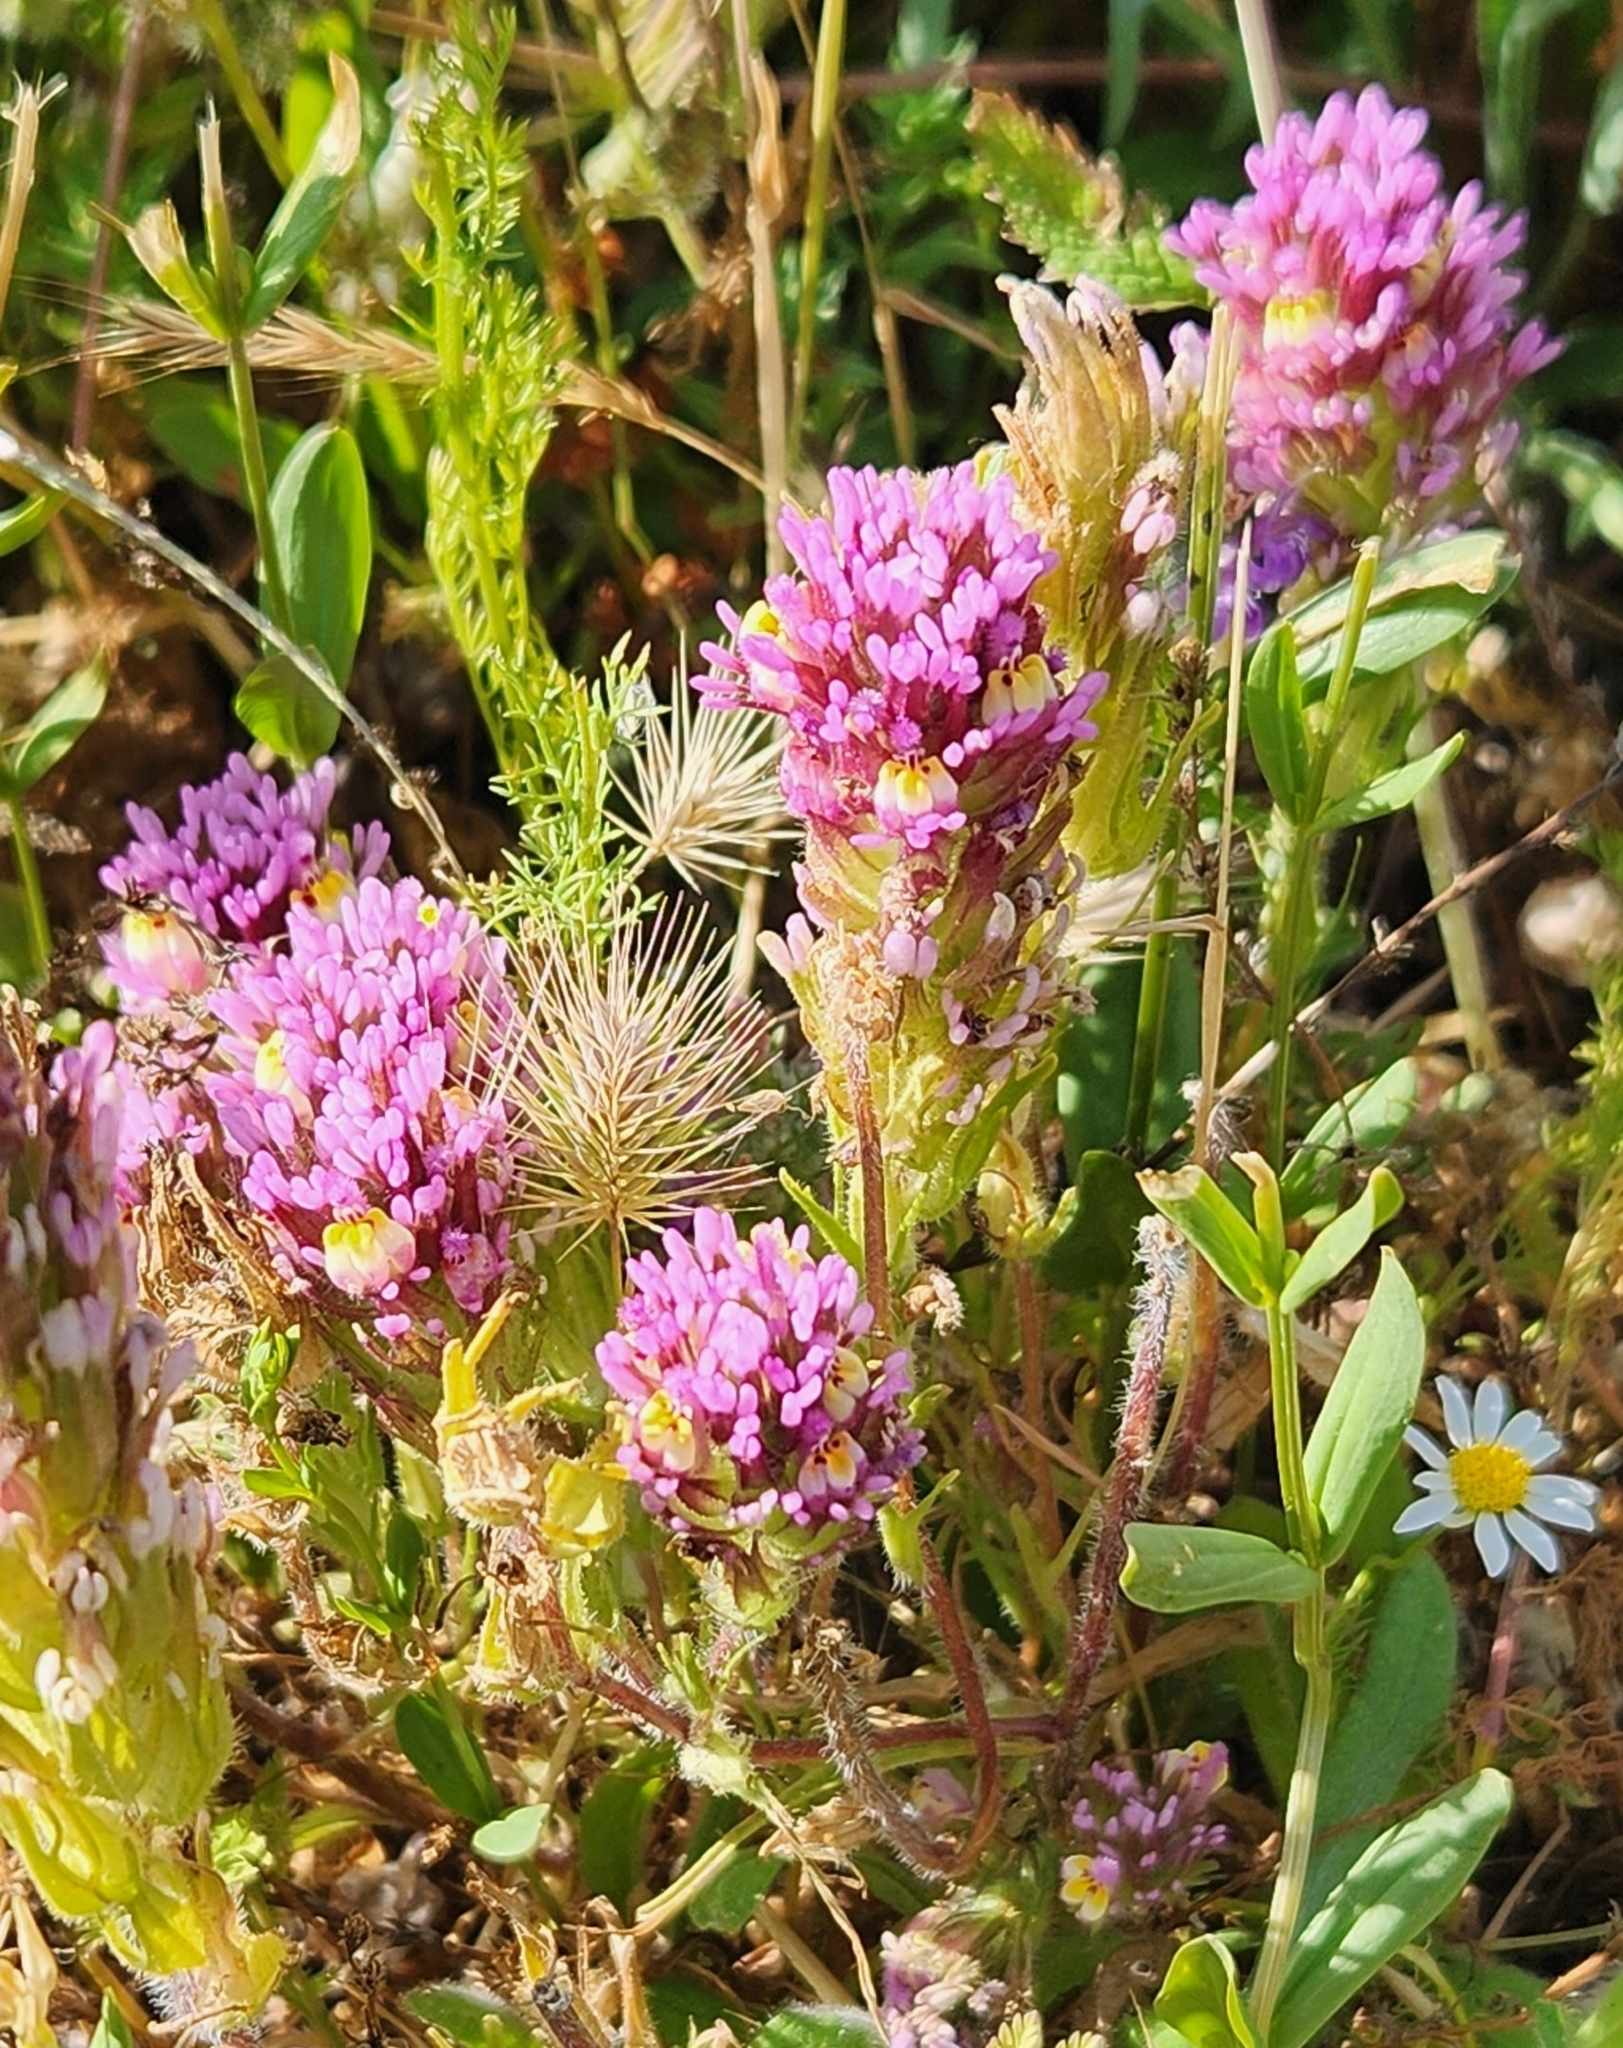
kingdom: Plantae
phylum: Tracheophyta
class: Magnoliopsida
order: Lamiales
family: Orobanchaceae
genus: Castilleja
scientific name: Castilleja exserta
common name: Purple owl-clover
